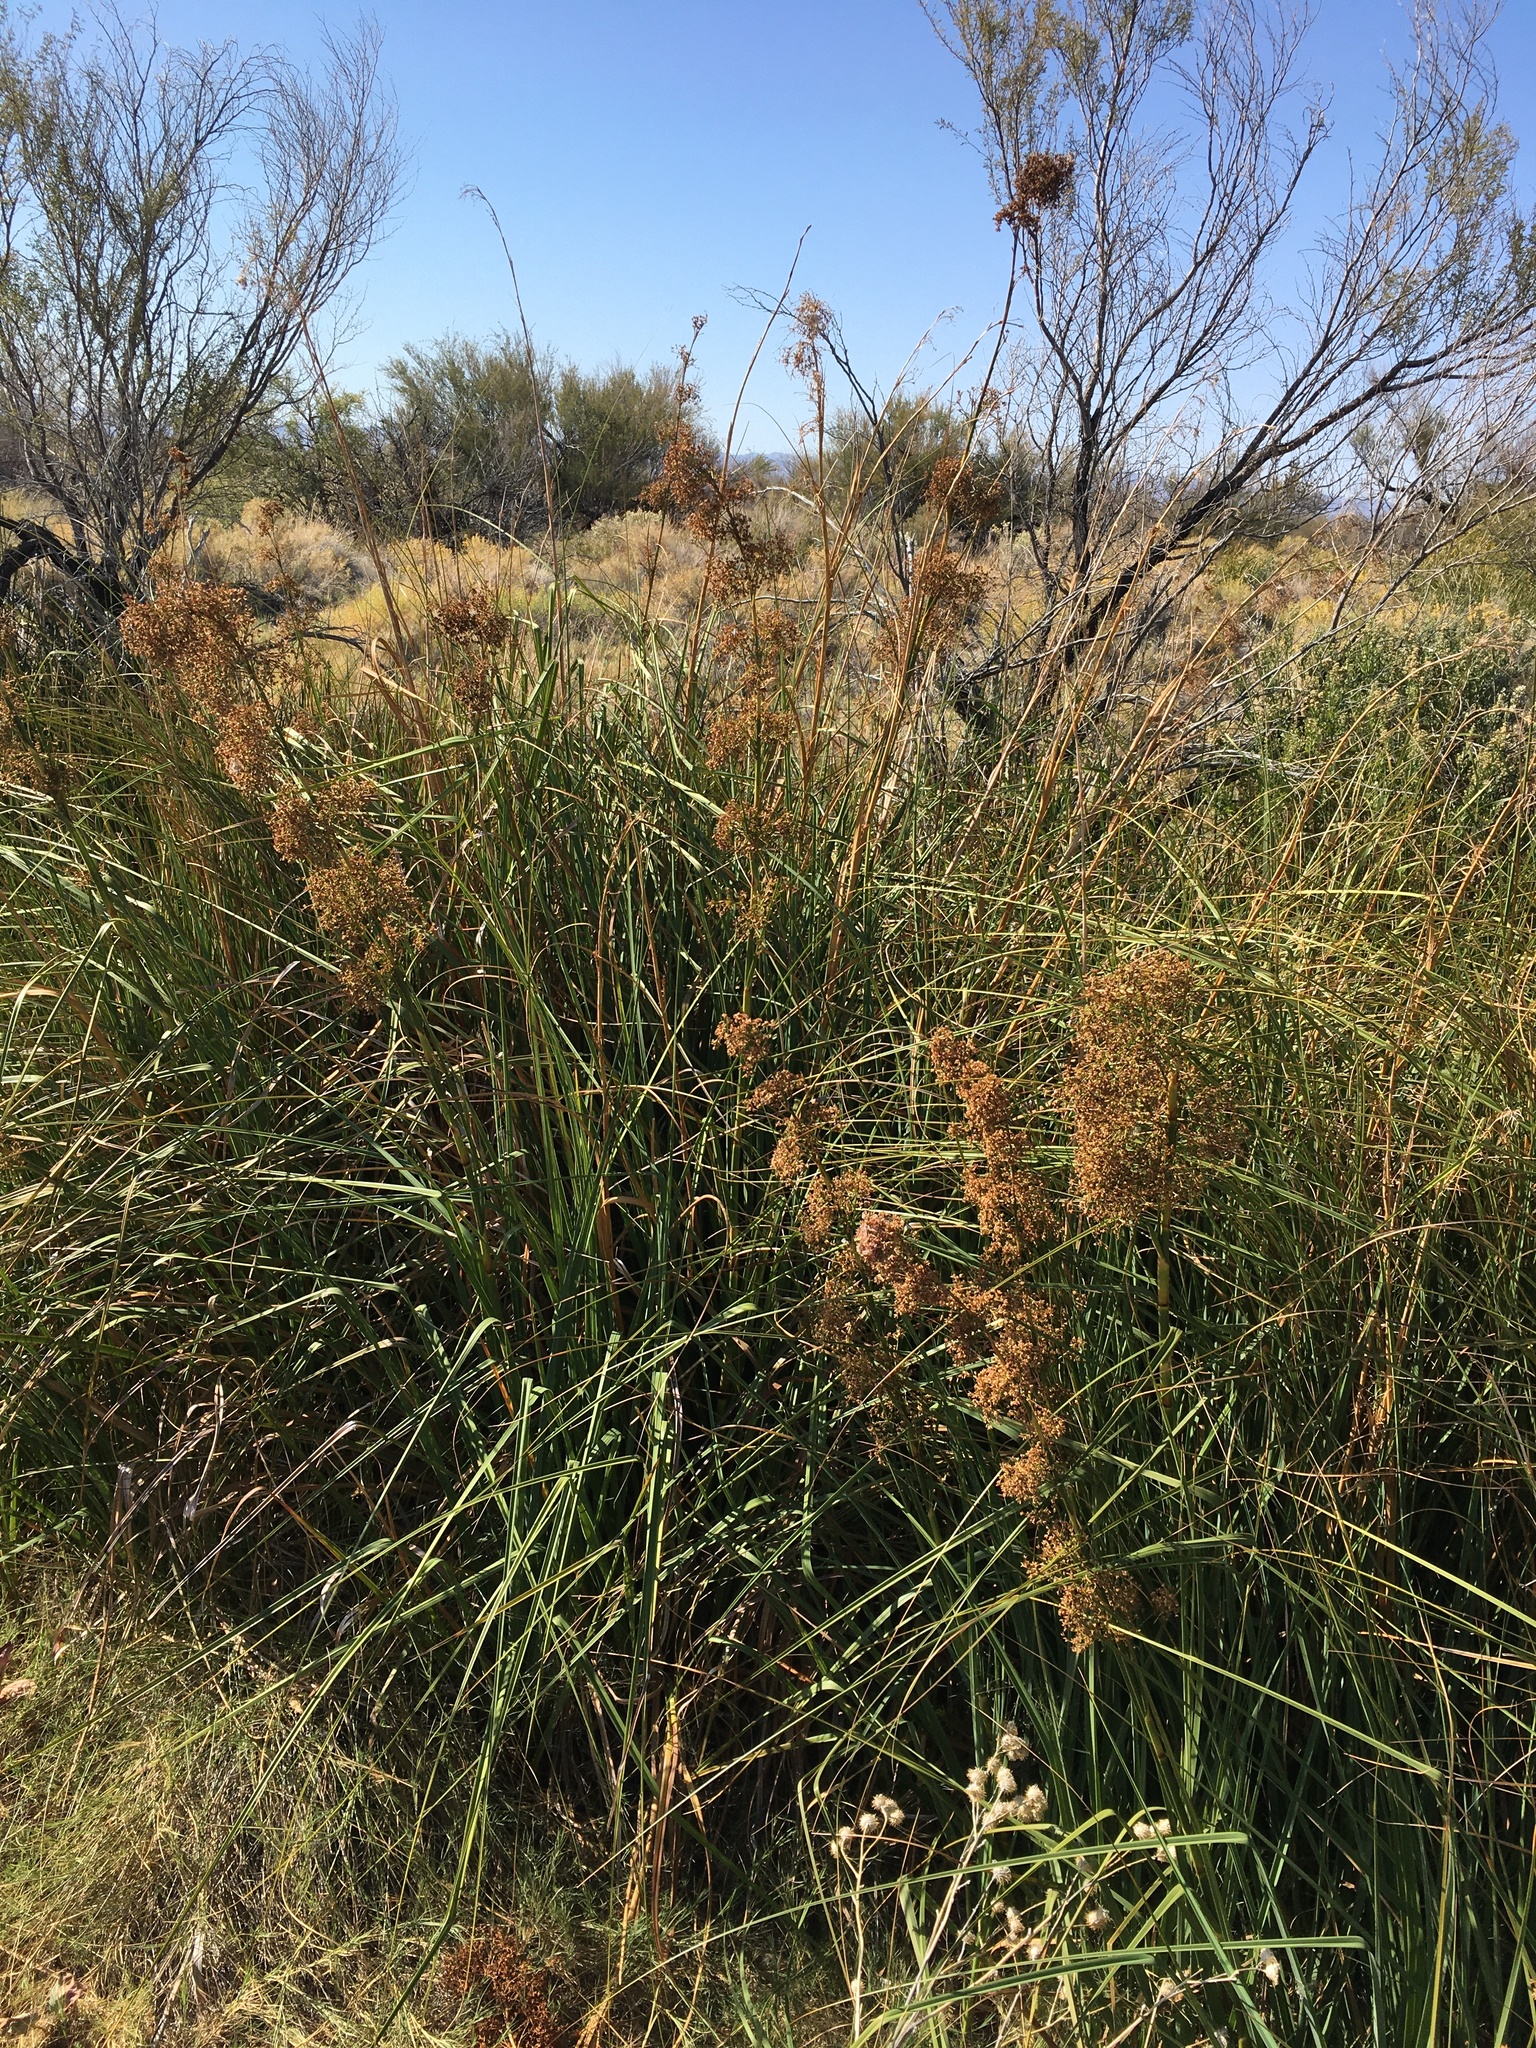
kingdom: Plantae
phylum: Tracheophyta
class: Liliopsida
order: Poales
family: Cyperaceae
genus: Cladium
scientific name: Cladium mariscus
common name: Great fen-sedge
